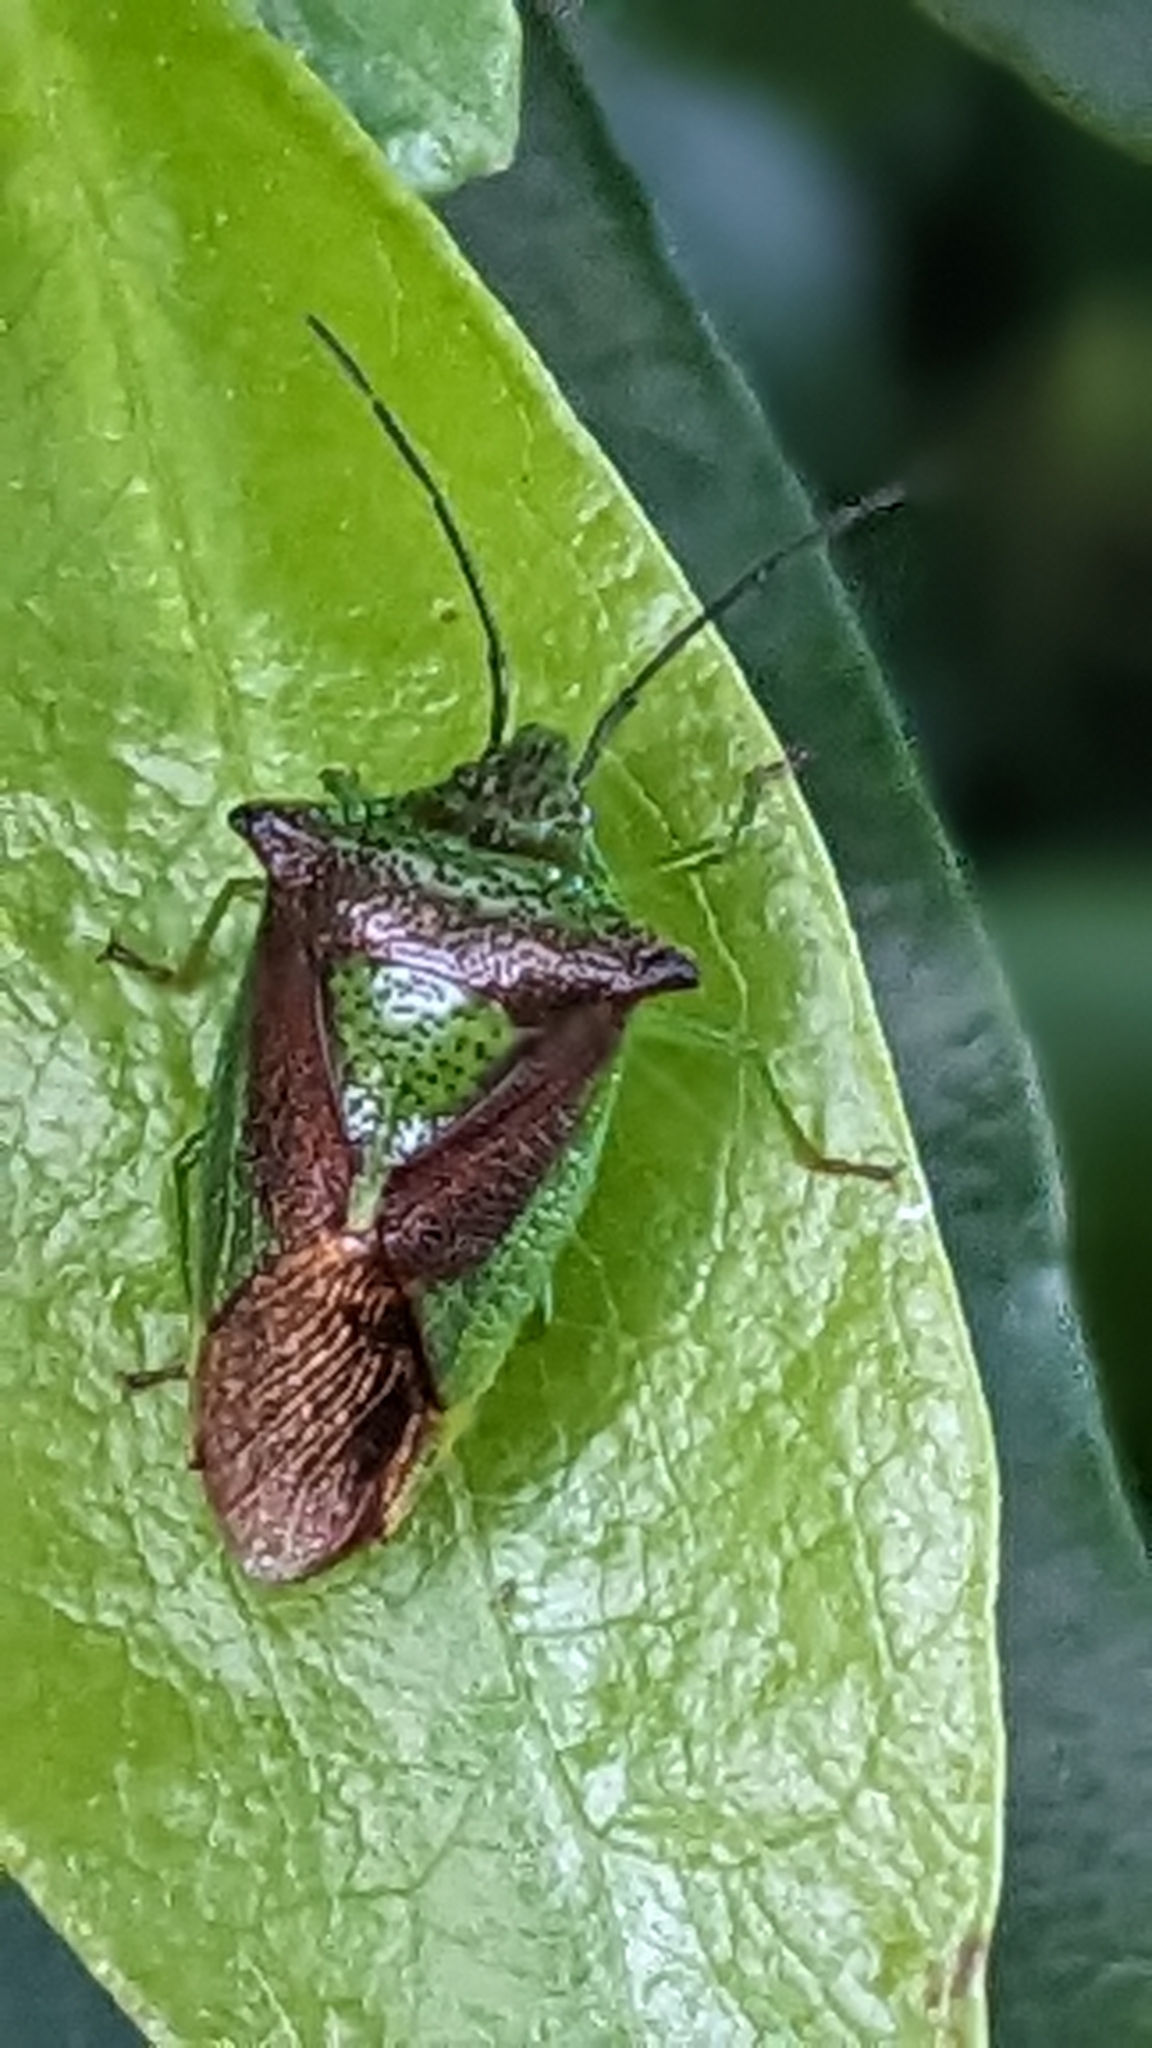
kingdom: Animalia
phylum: Arthropoda
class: Insecta
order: Hemiptera
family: Acanthosomatidae
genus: Acanthosoma
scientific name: Acanthosoma haemorrhoidale
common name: Hawthorn shieldbug
